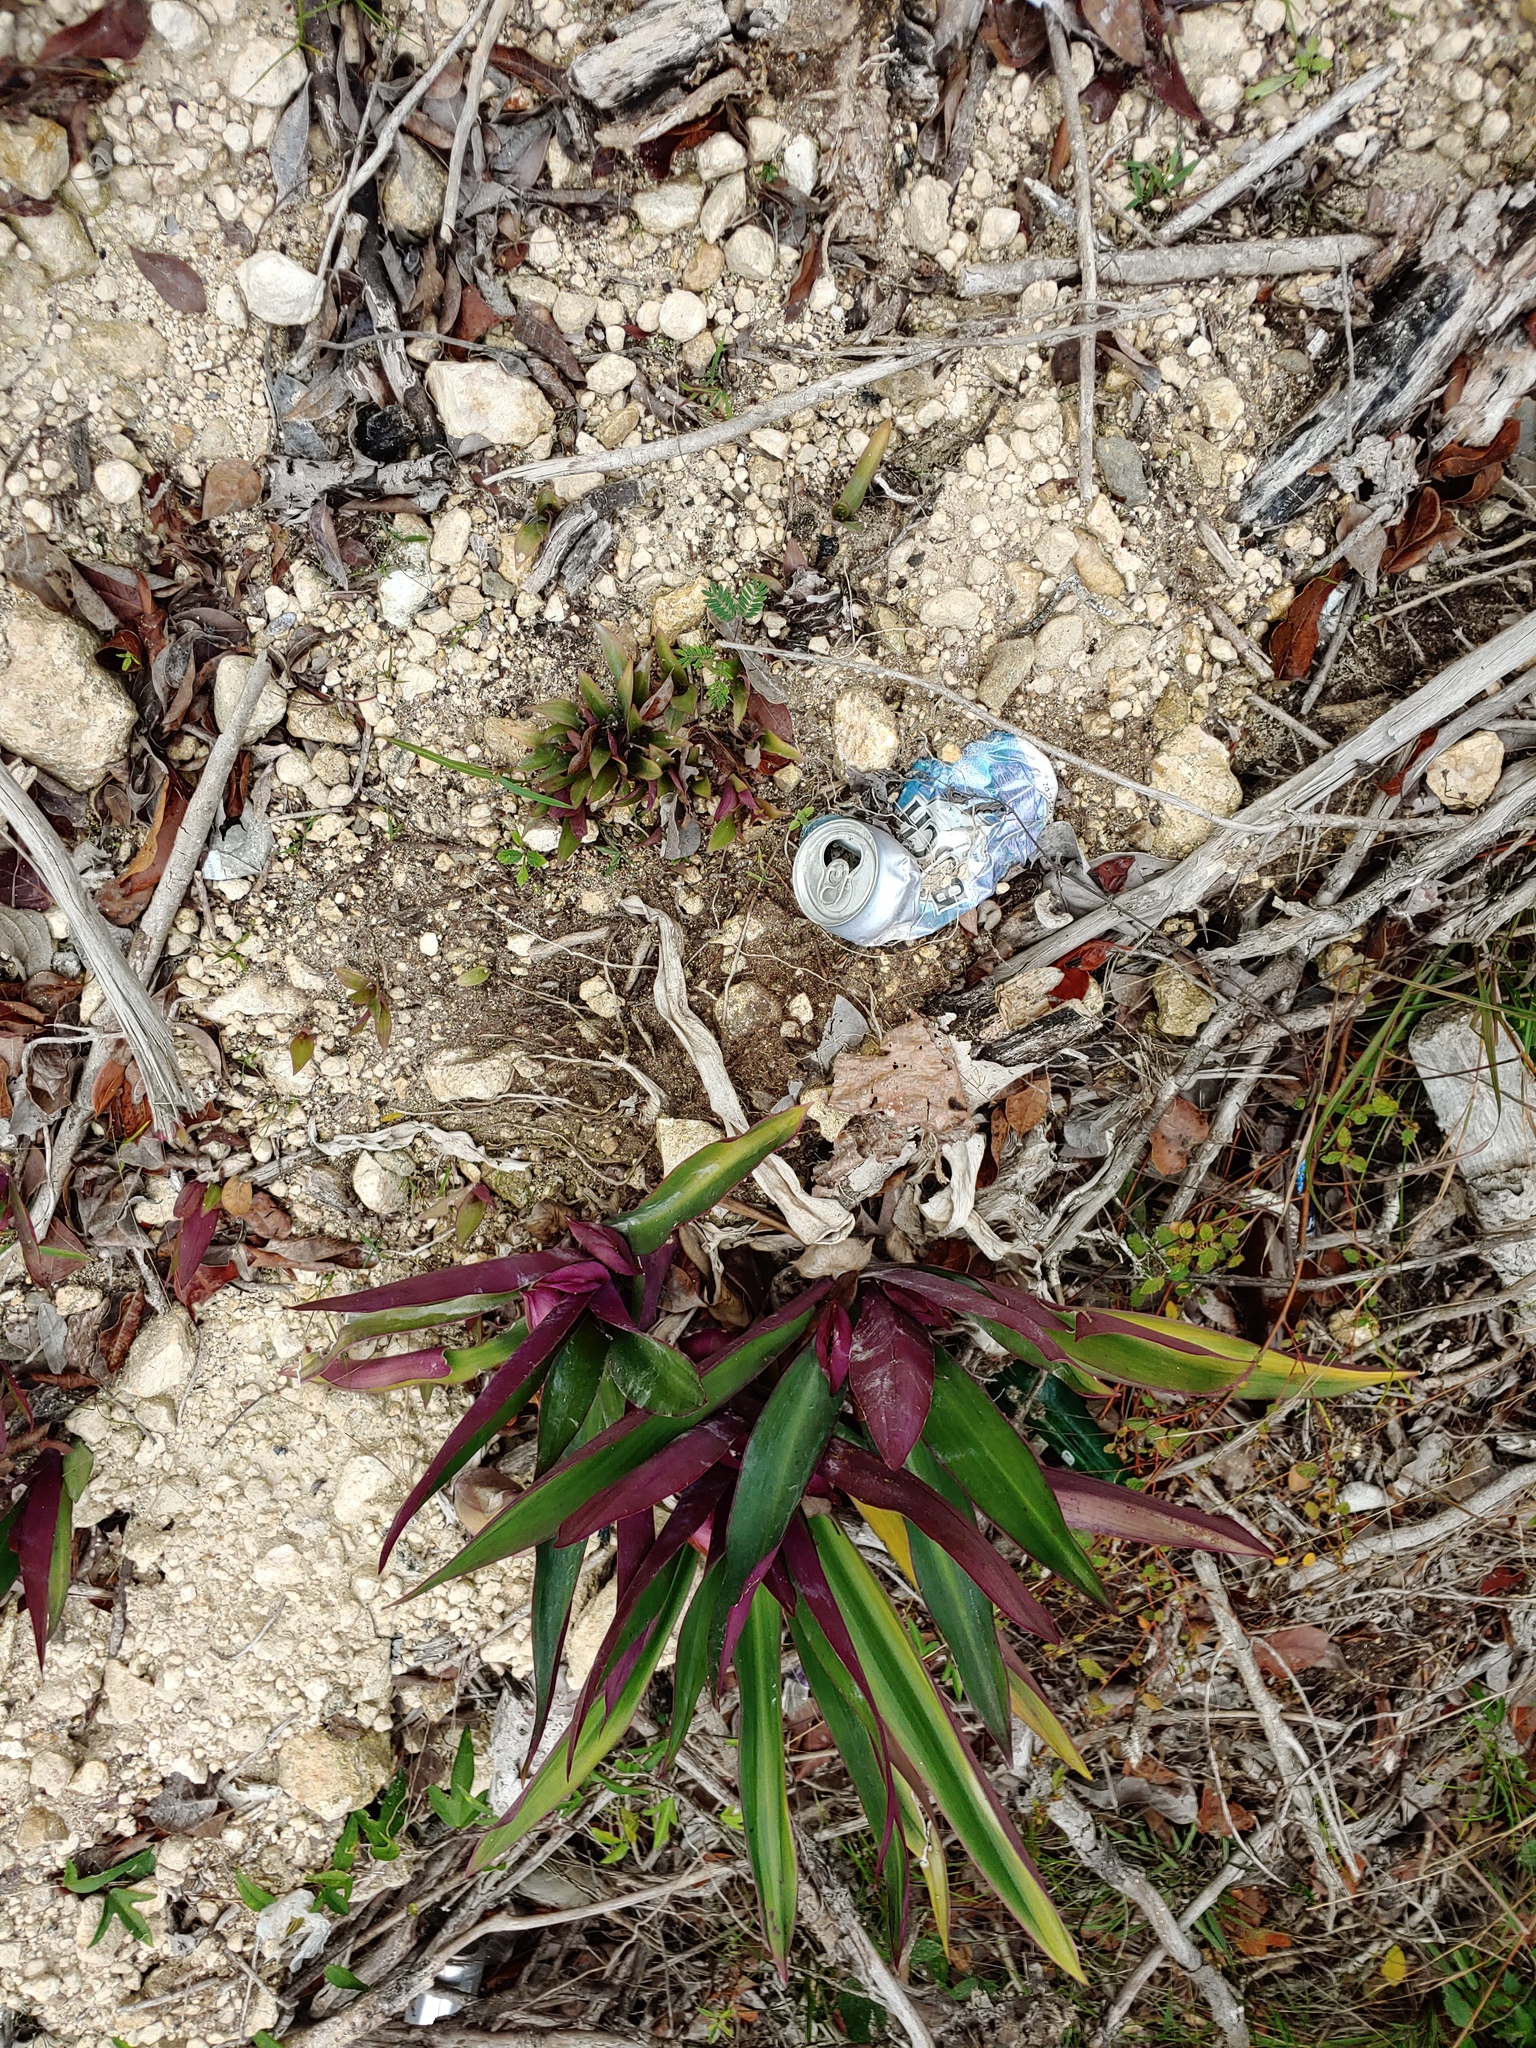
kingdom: Plantae
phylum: Tracheophyta
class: Liliopsida
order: Commelinales
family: Commelinaceae
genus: Tradescantia
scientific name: Tradescantia spathacea
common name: Boatlily
